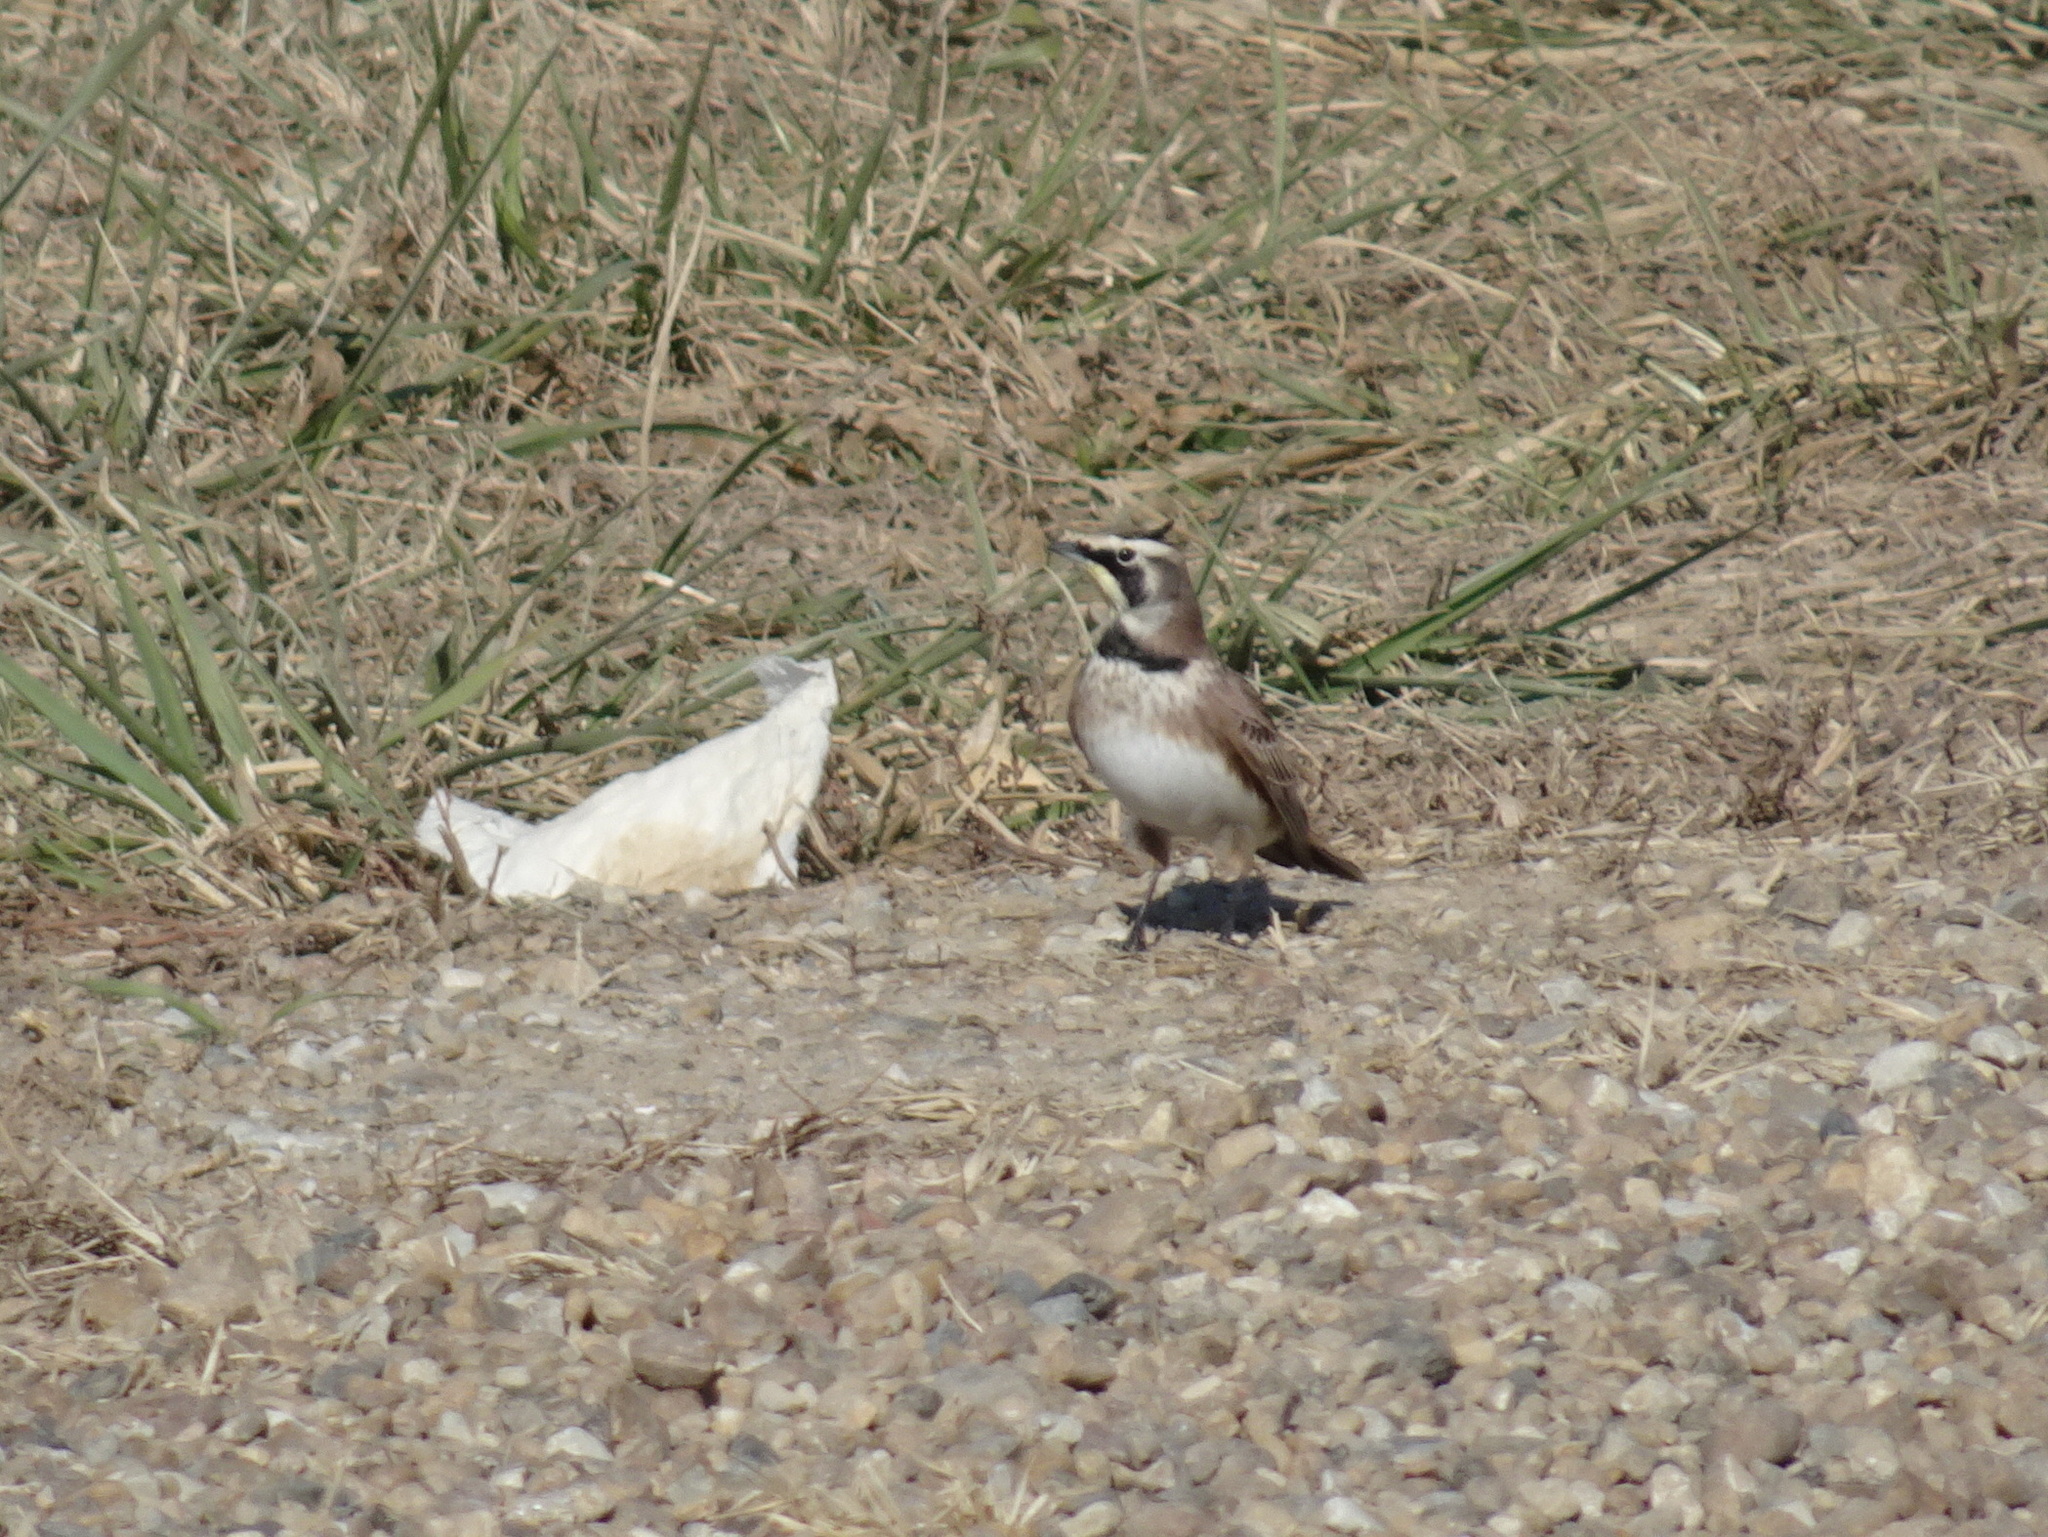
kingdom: Animalia
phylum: Chordata
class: Aves
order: Passeriformes
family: Alaudidae
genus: Eremophila
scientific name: Eremophila alpestris
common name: Horned lark
